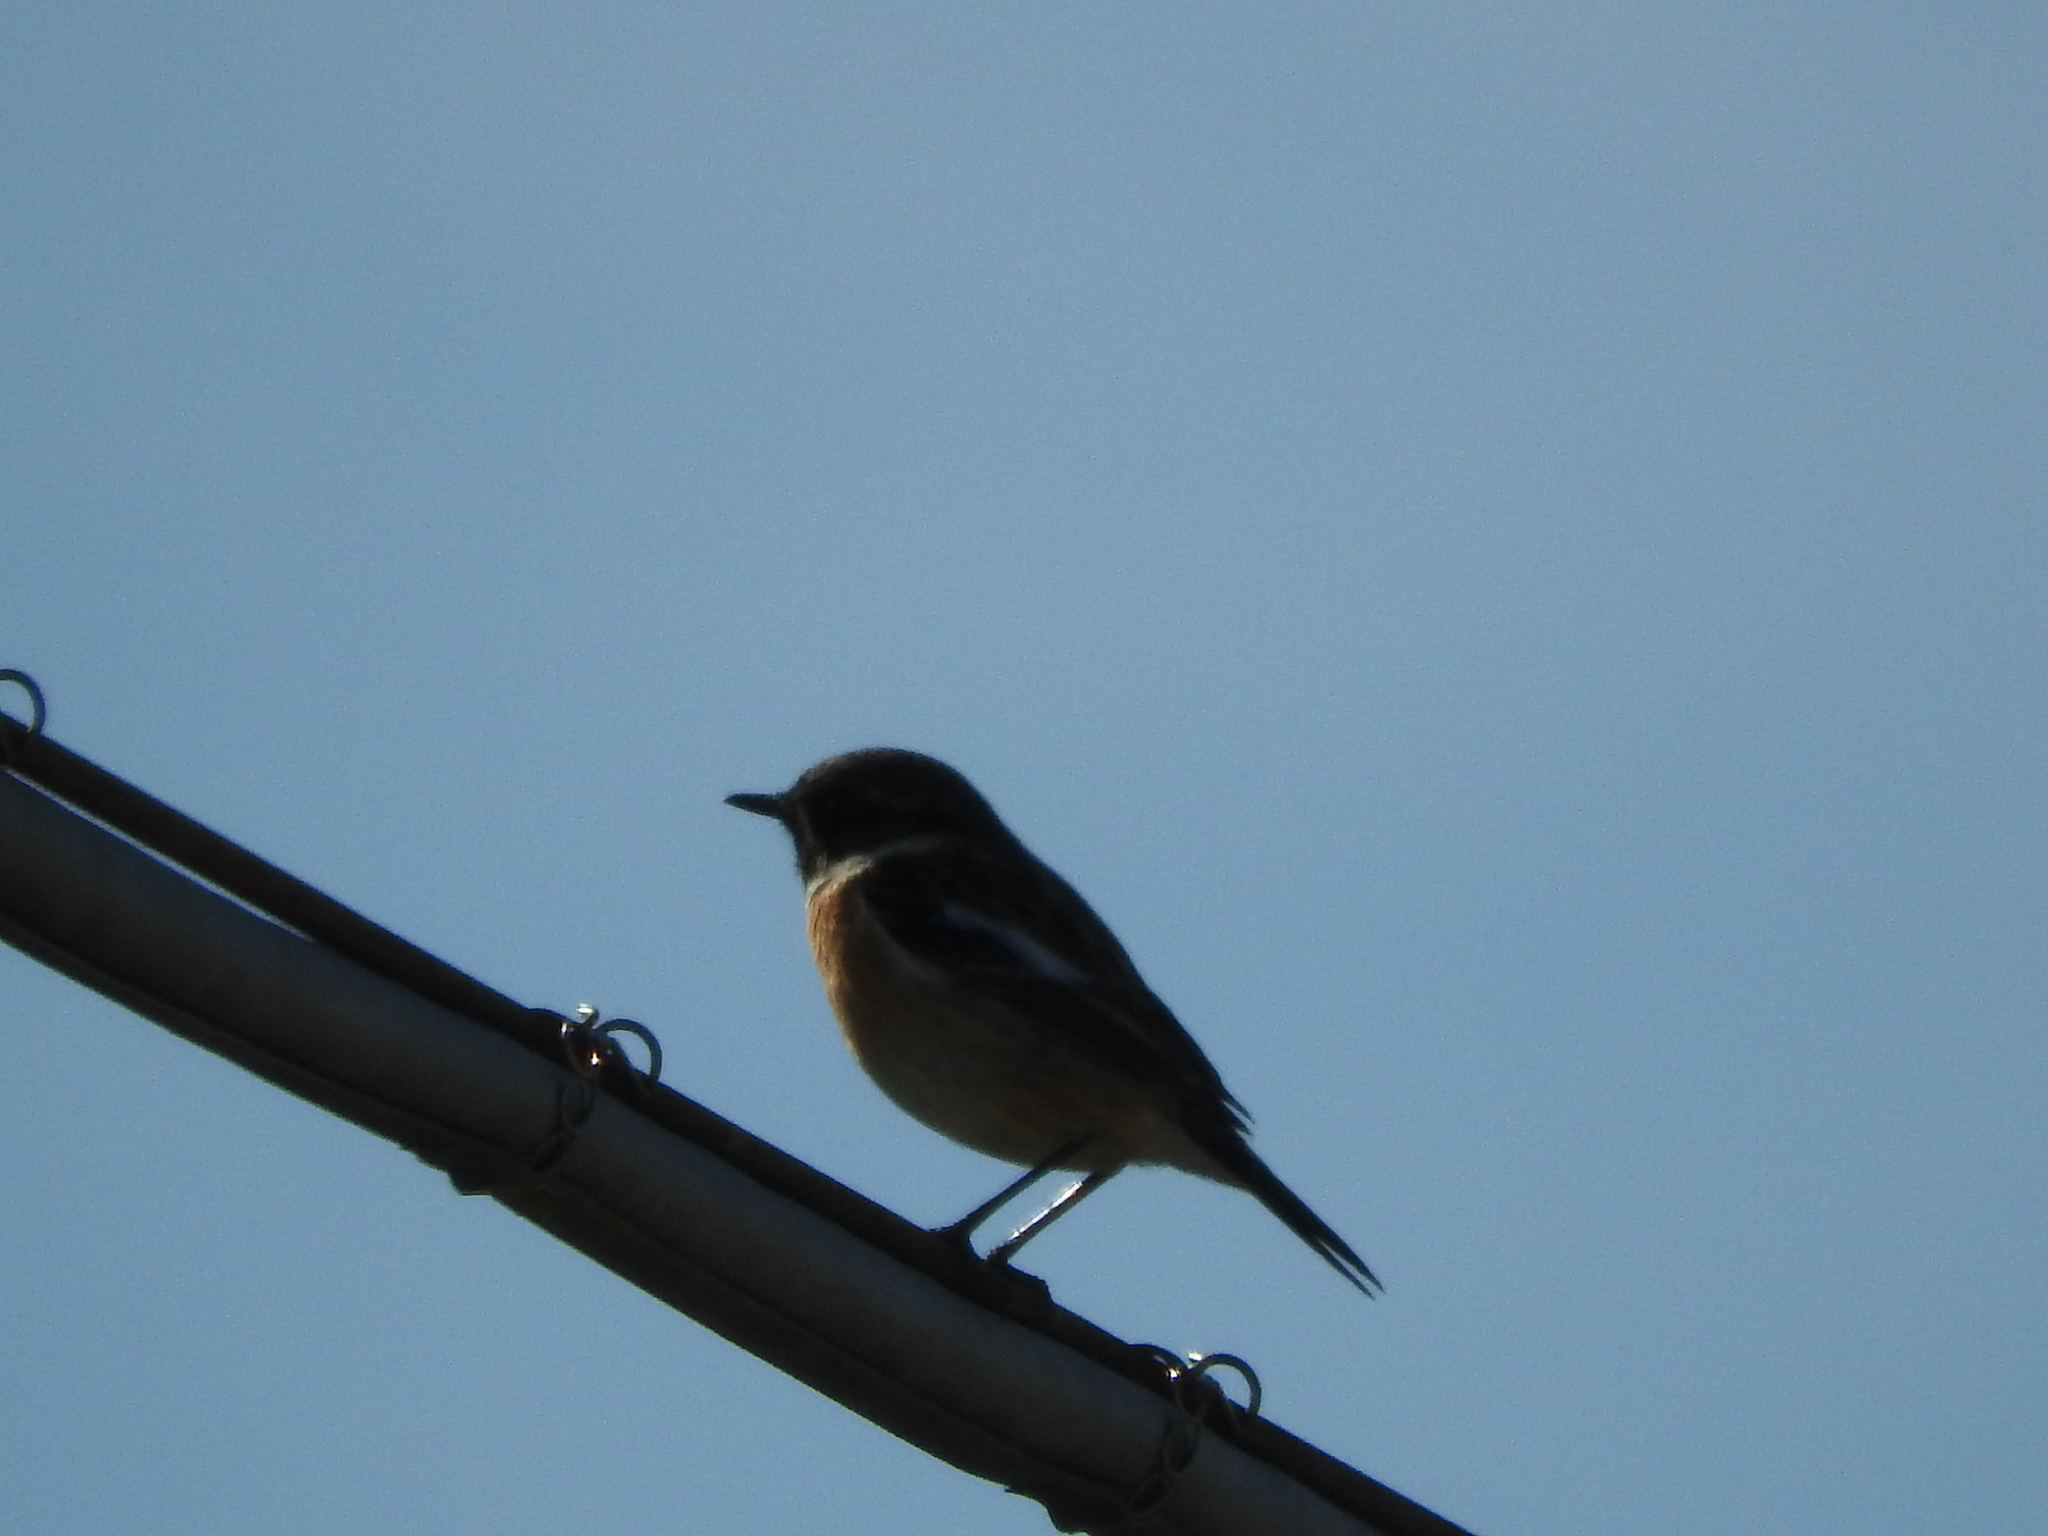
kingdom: Animalia
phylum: Chordata
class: Aves
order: Passeriformes
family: Muscicapidae
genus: Saxicola
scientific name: Saxicola rubicola
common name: European stonechat
